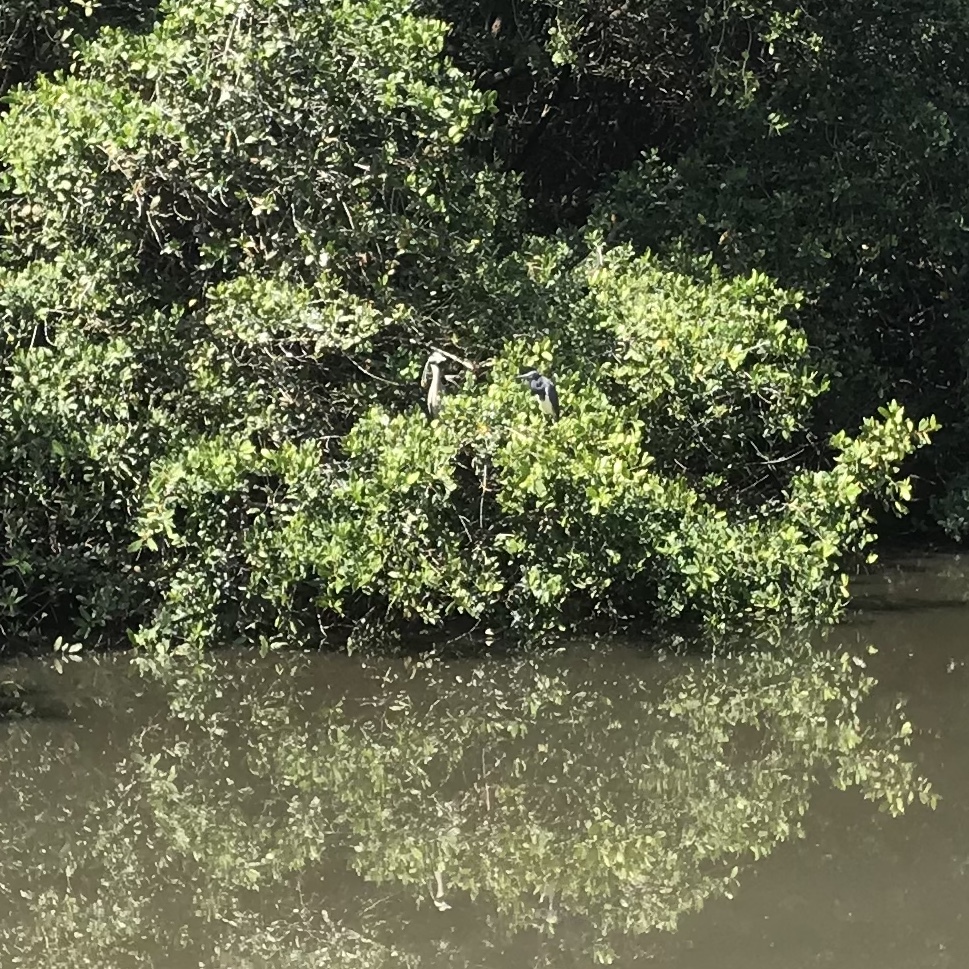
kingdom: Animalia
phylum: Chordata
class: Aves
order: Pelecaniformes
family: Ardeidae
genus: Egretta
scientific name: Egretta tricolor
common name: Tricolored heron
